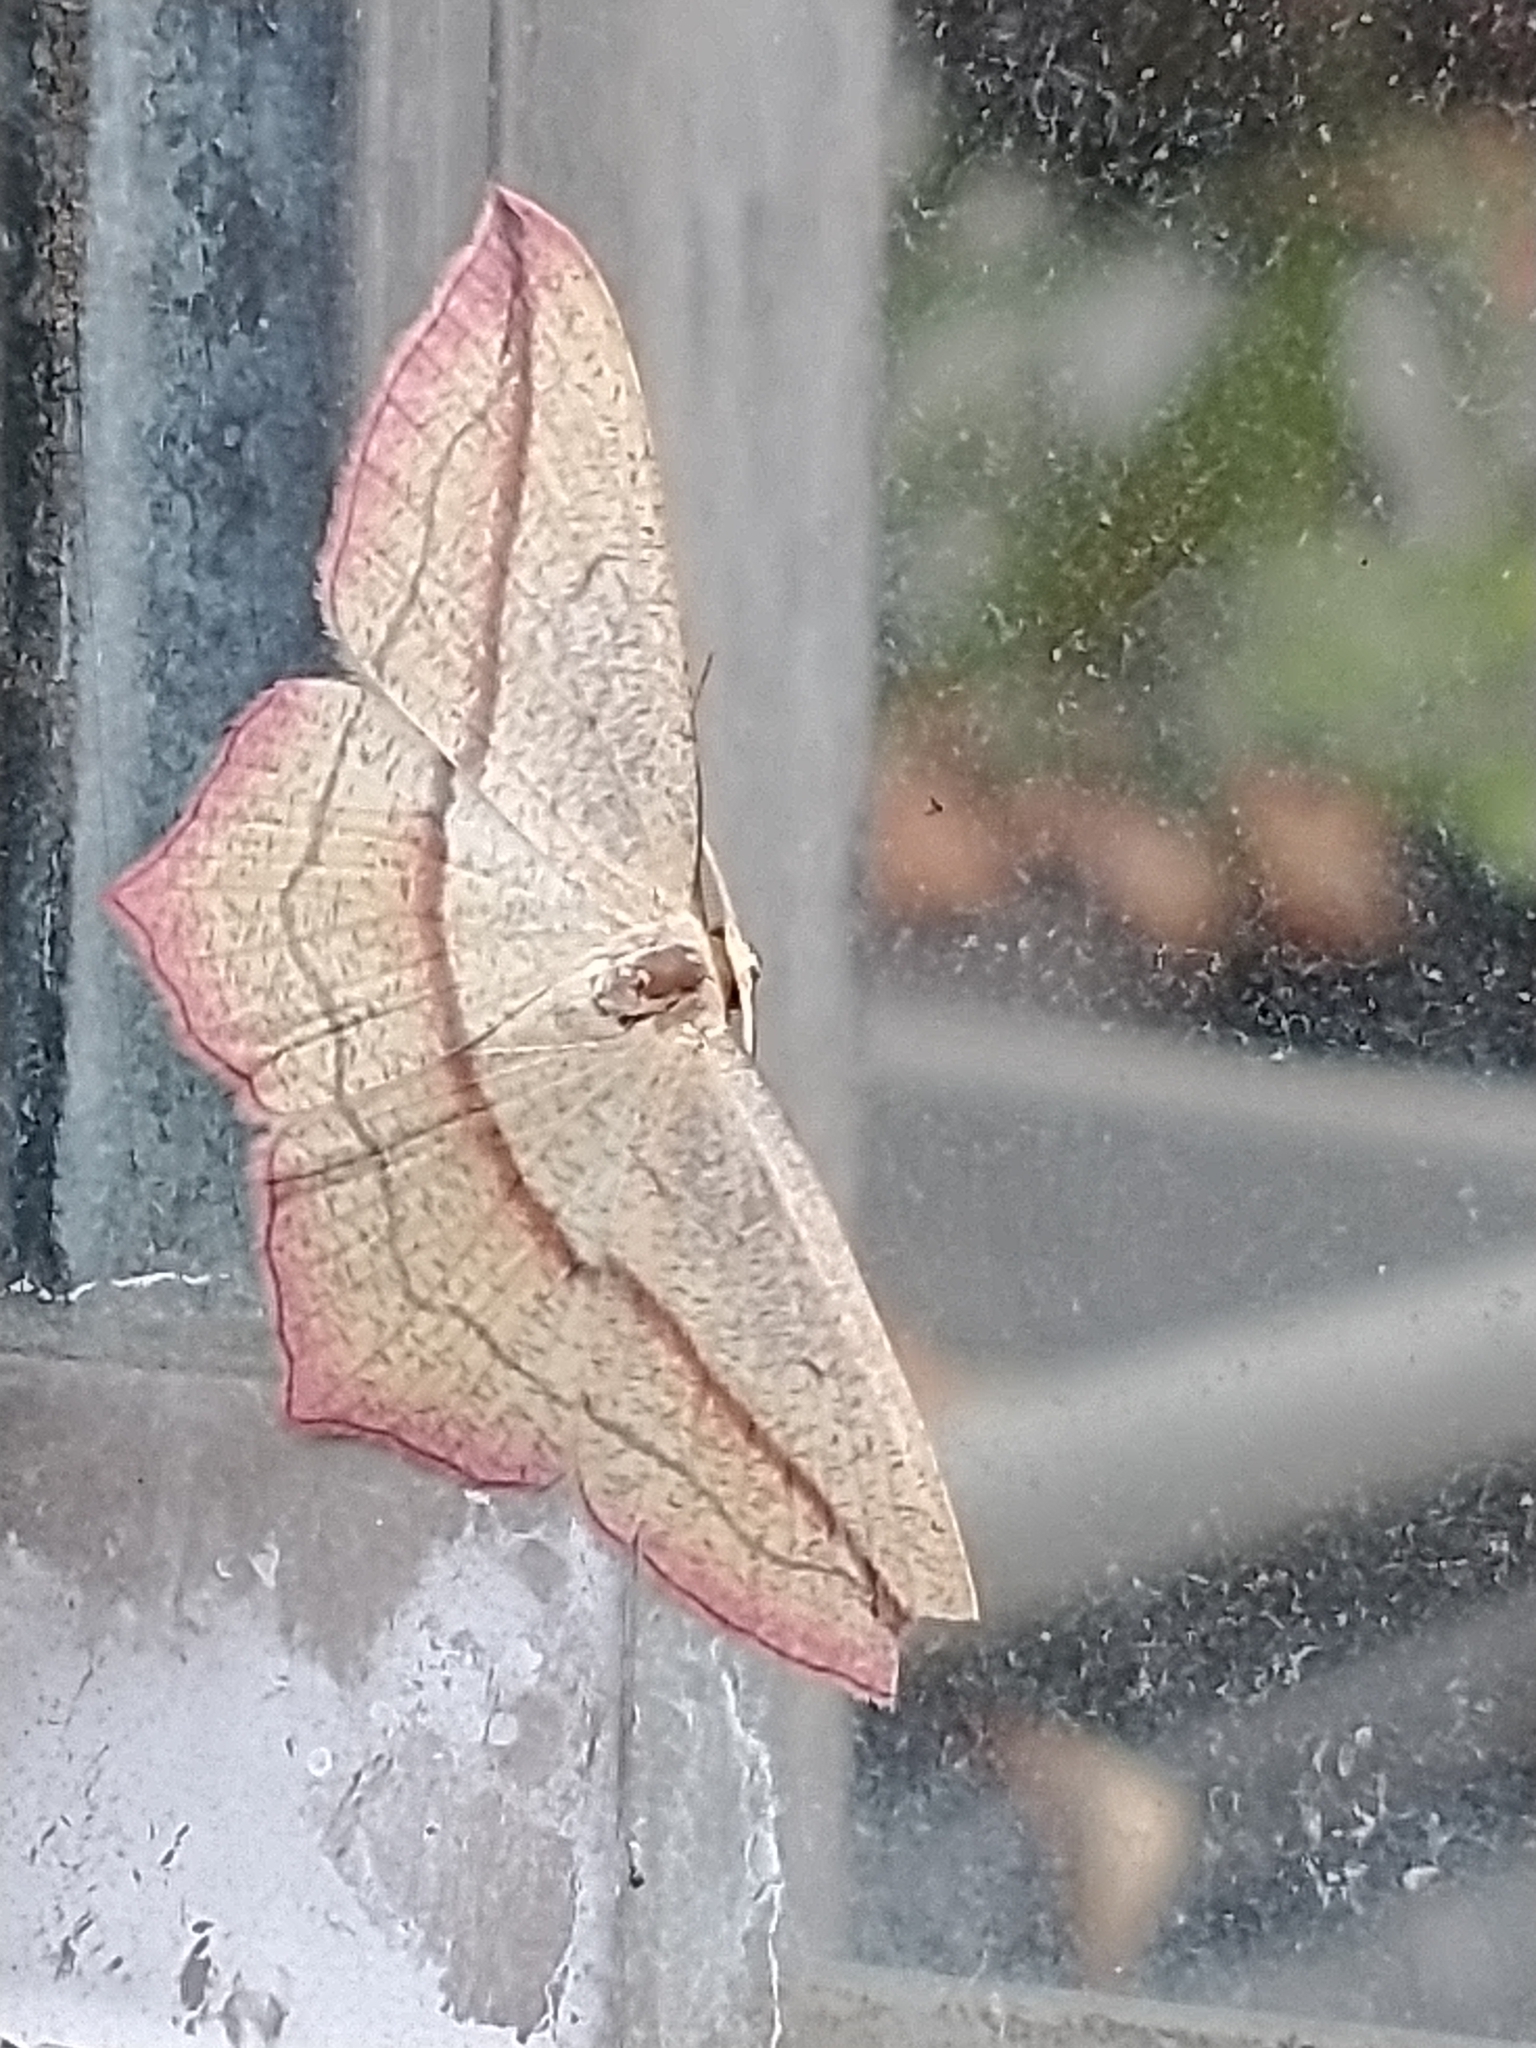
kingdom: Animalia
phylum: Arthropoda
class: Insecta
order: Lepidoptera
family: Geometridae
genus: Timandra
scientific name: Timandra comae
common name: Blood-vein
